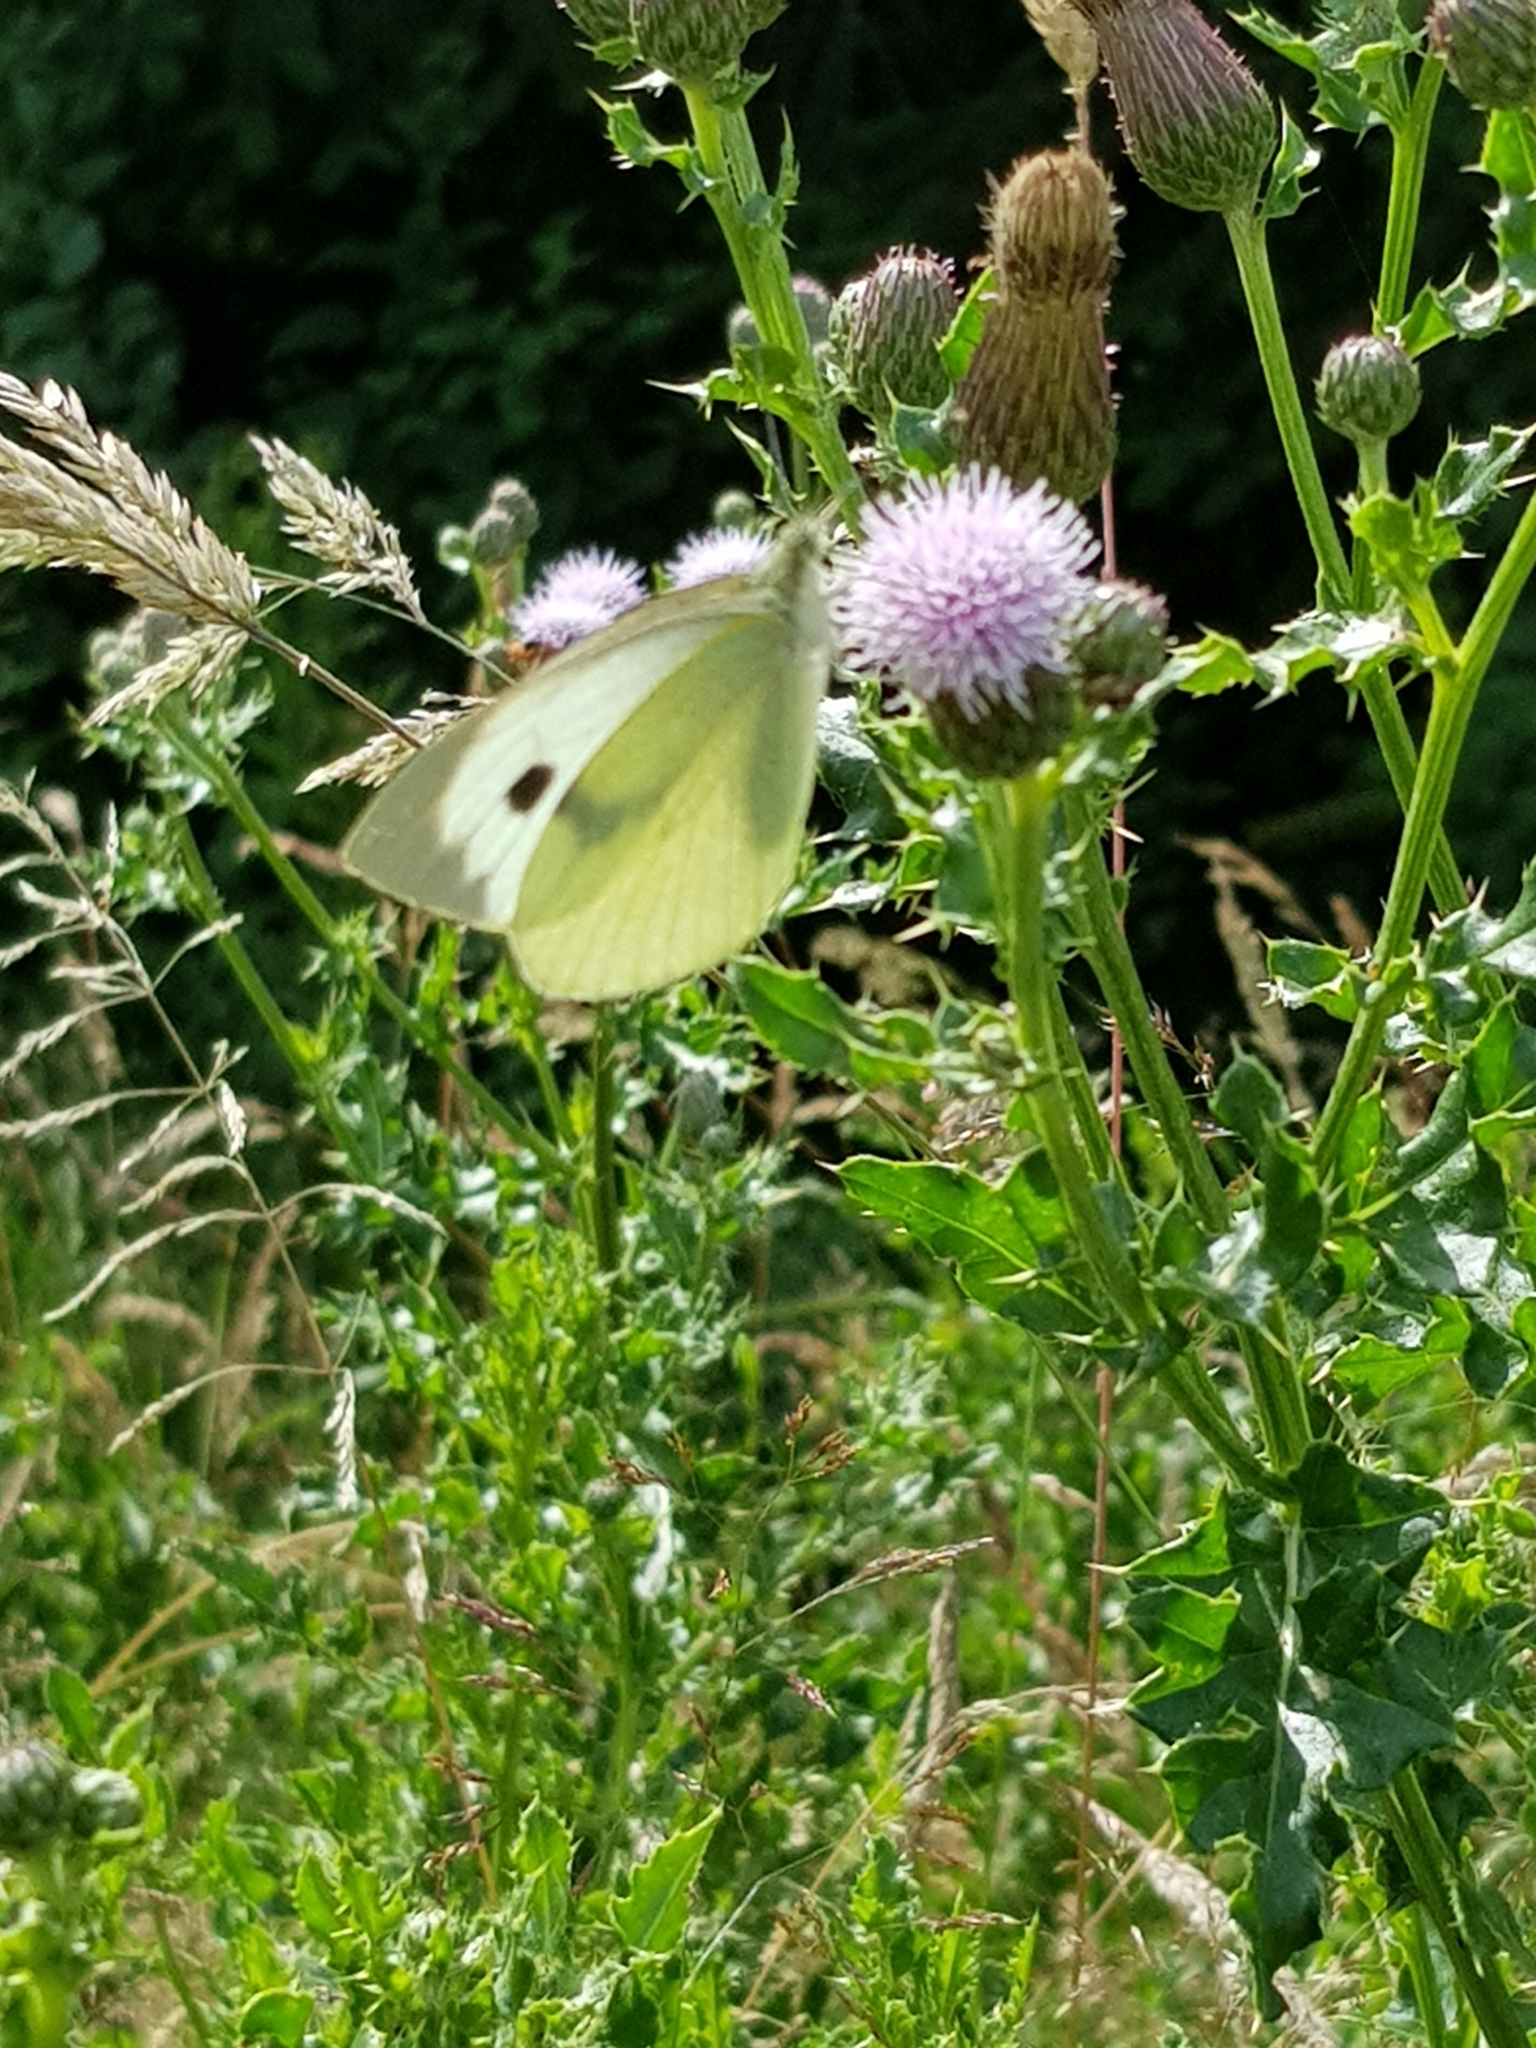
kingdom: Animalia
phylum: Arthropoda
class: Insecta
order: Lepidoptera
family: Pieridae
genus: Pieris
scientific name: Pieris brassicae
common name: Large white
